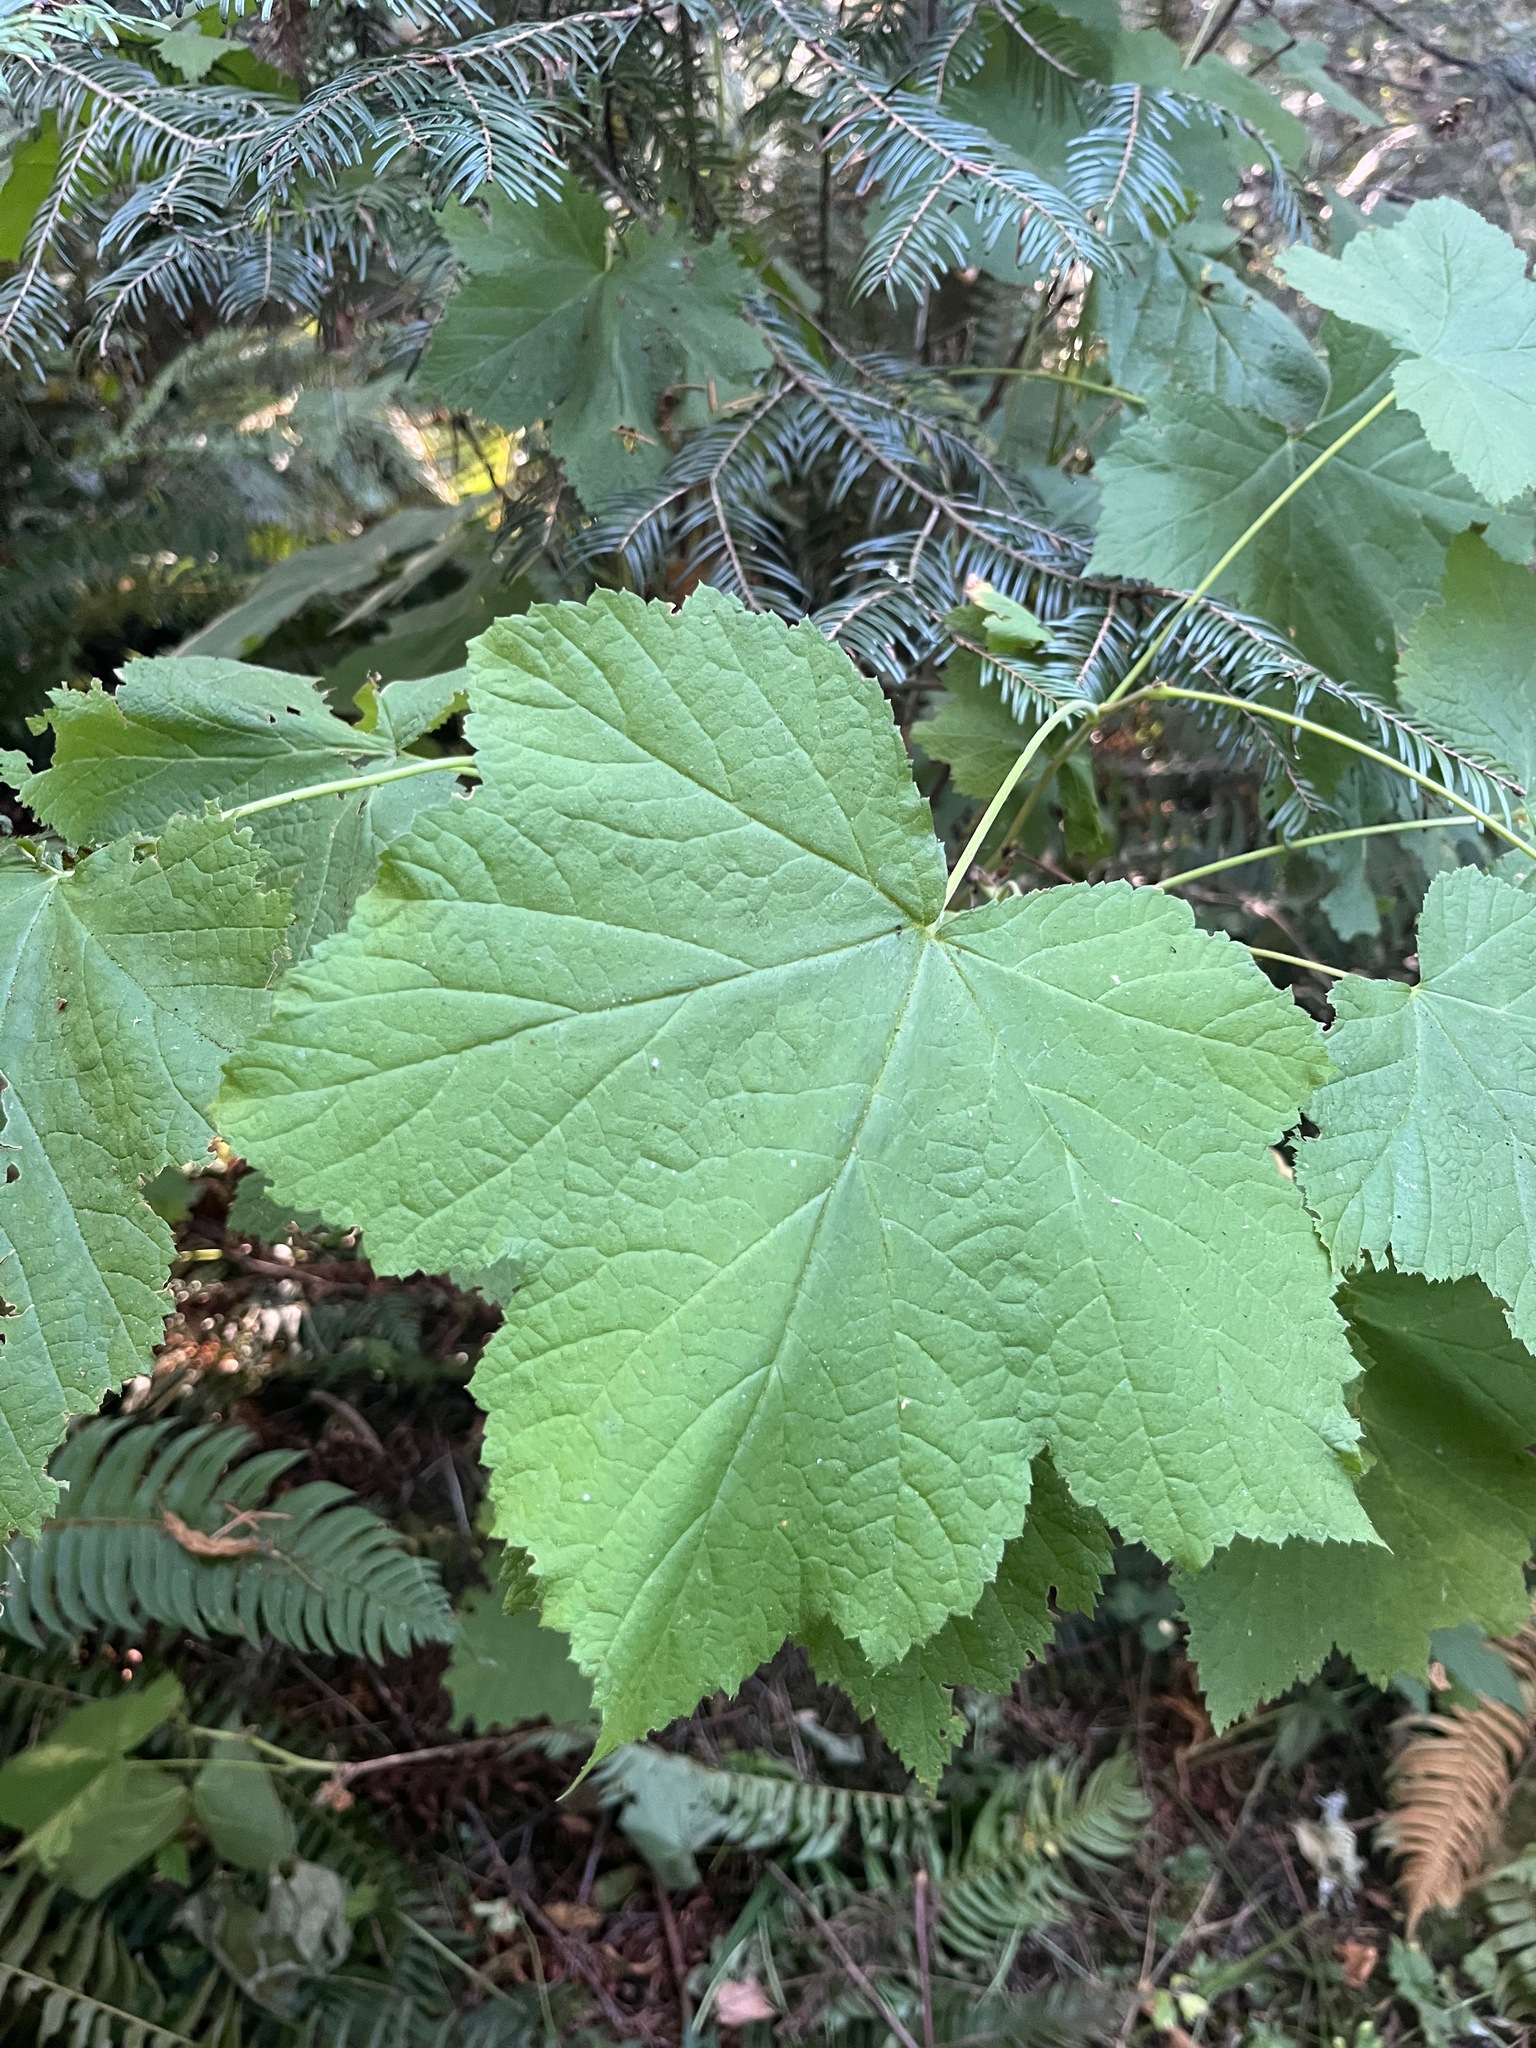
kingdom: Plantae
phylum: Tracheophyta
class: Magnoliopsida
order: Rosales
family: Rosaceae
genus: Rubus
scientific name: Rubus parviflorus
